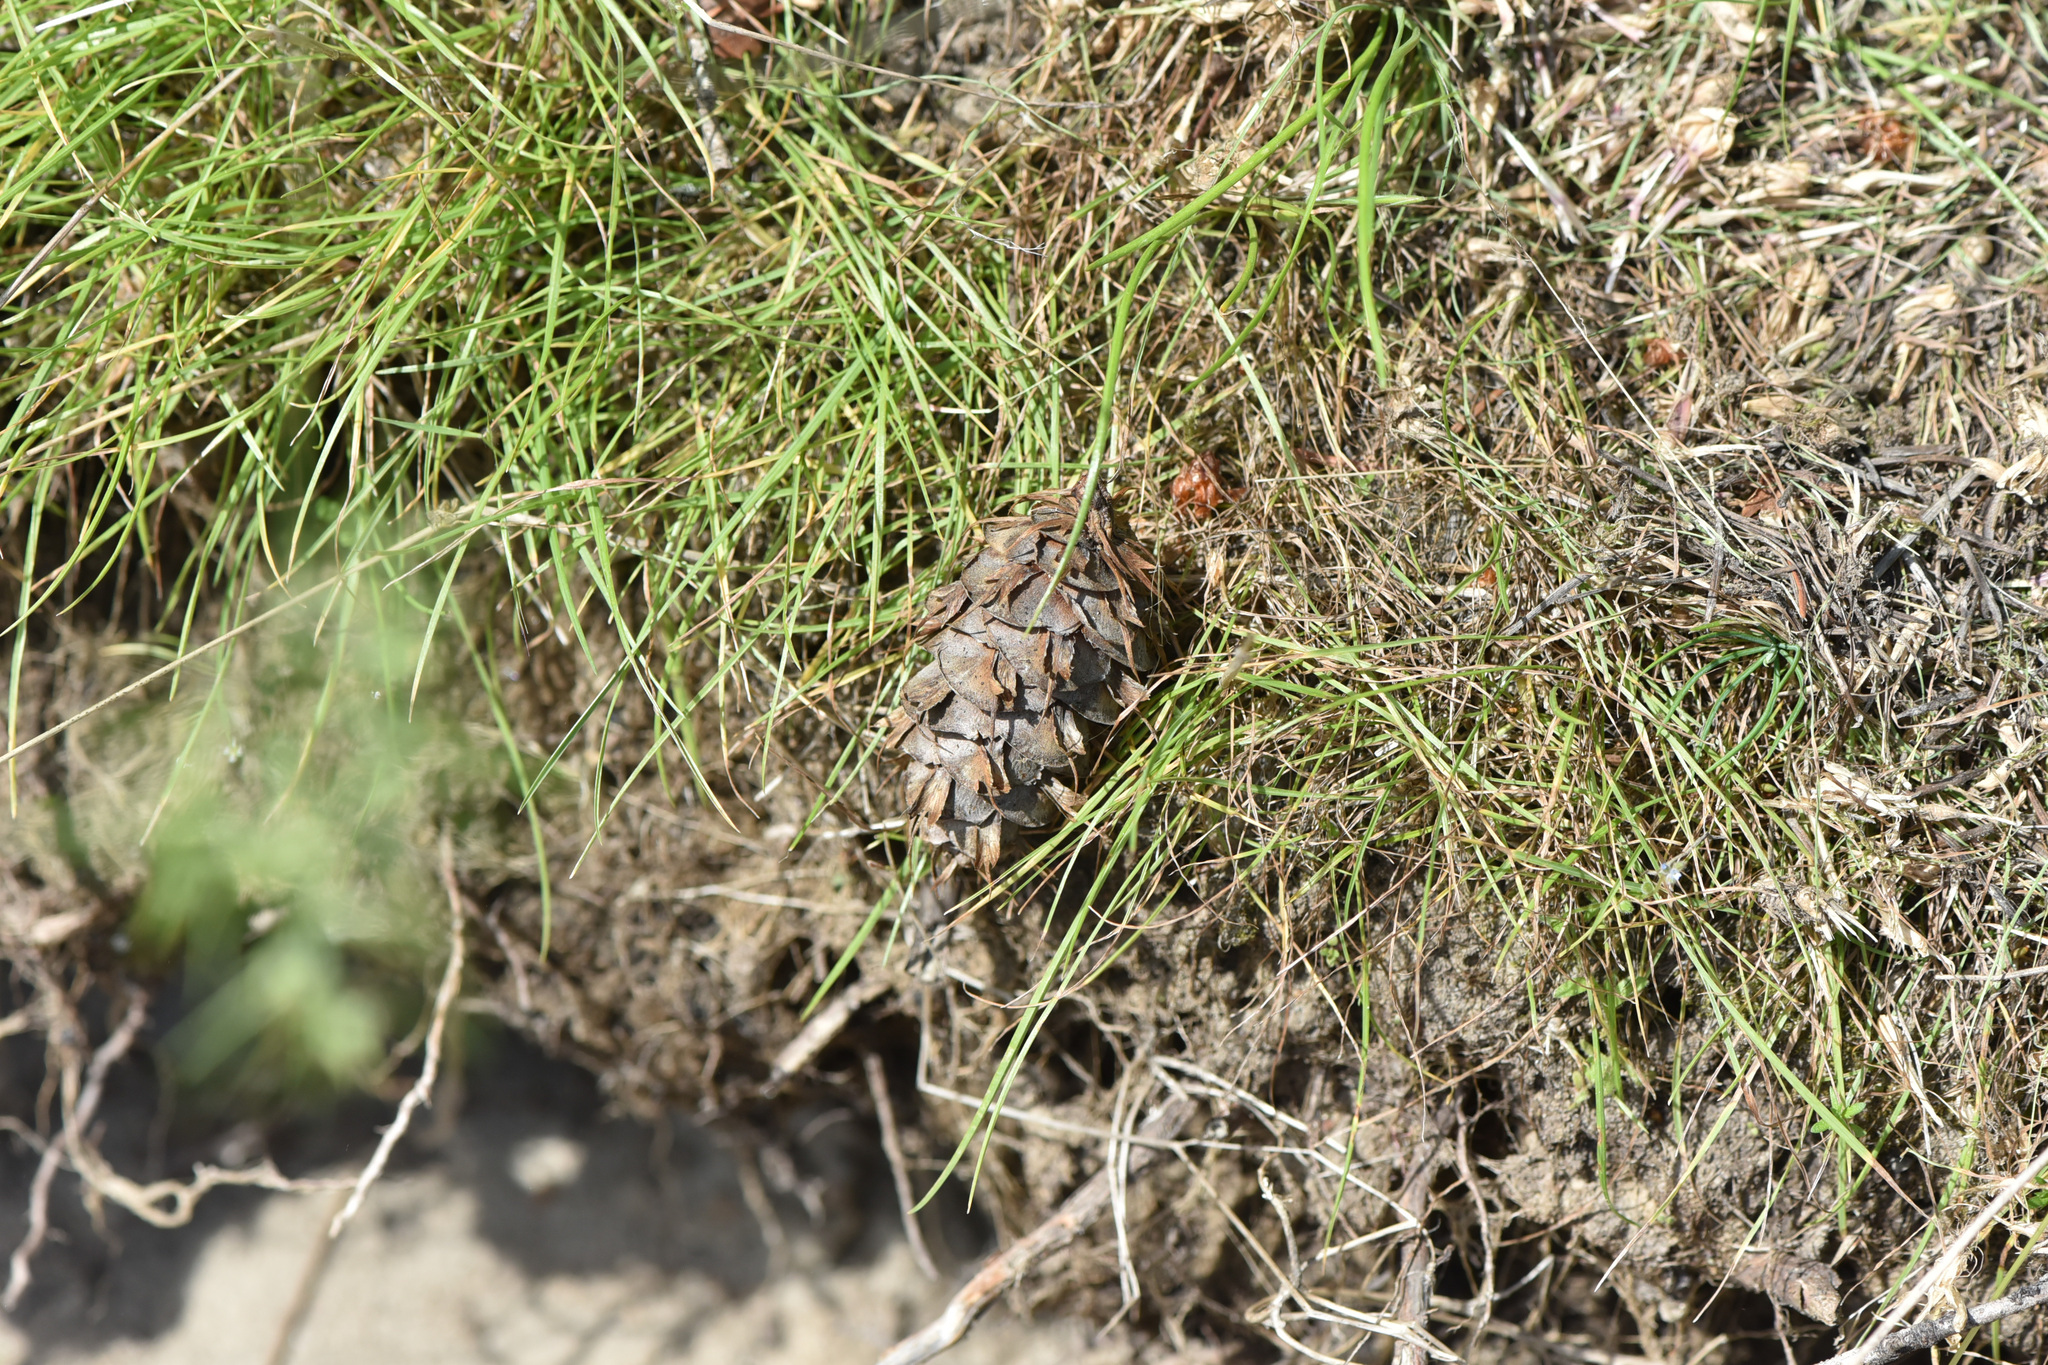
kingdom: Plantae
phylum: Tracheophyta
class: Pinopsida
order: Pinales
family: Pinaceae
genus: Pseudotsuga
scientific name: Pseudotsuga menziesii
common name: Douglas fir
